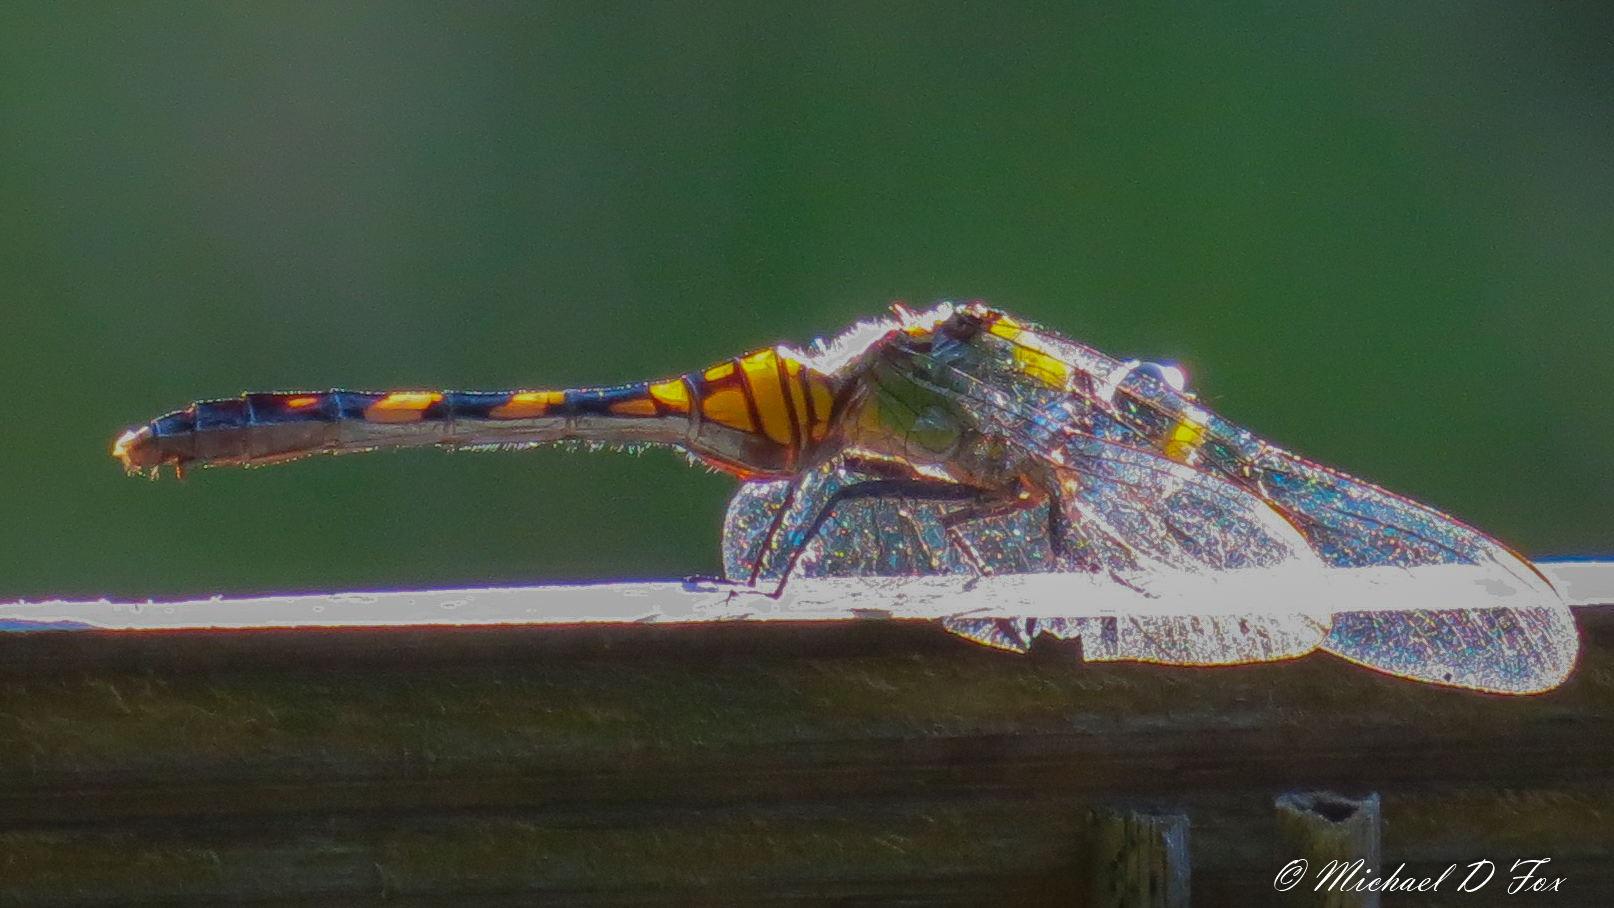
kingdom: Animalia
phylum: Arthropoda
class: Insecta
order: Odonata
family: Libellulidae
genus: Erythemis
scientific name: Erythemis simplicicollis
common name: Eastern pondhawk
